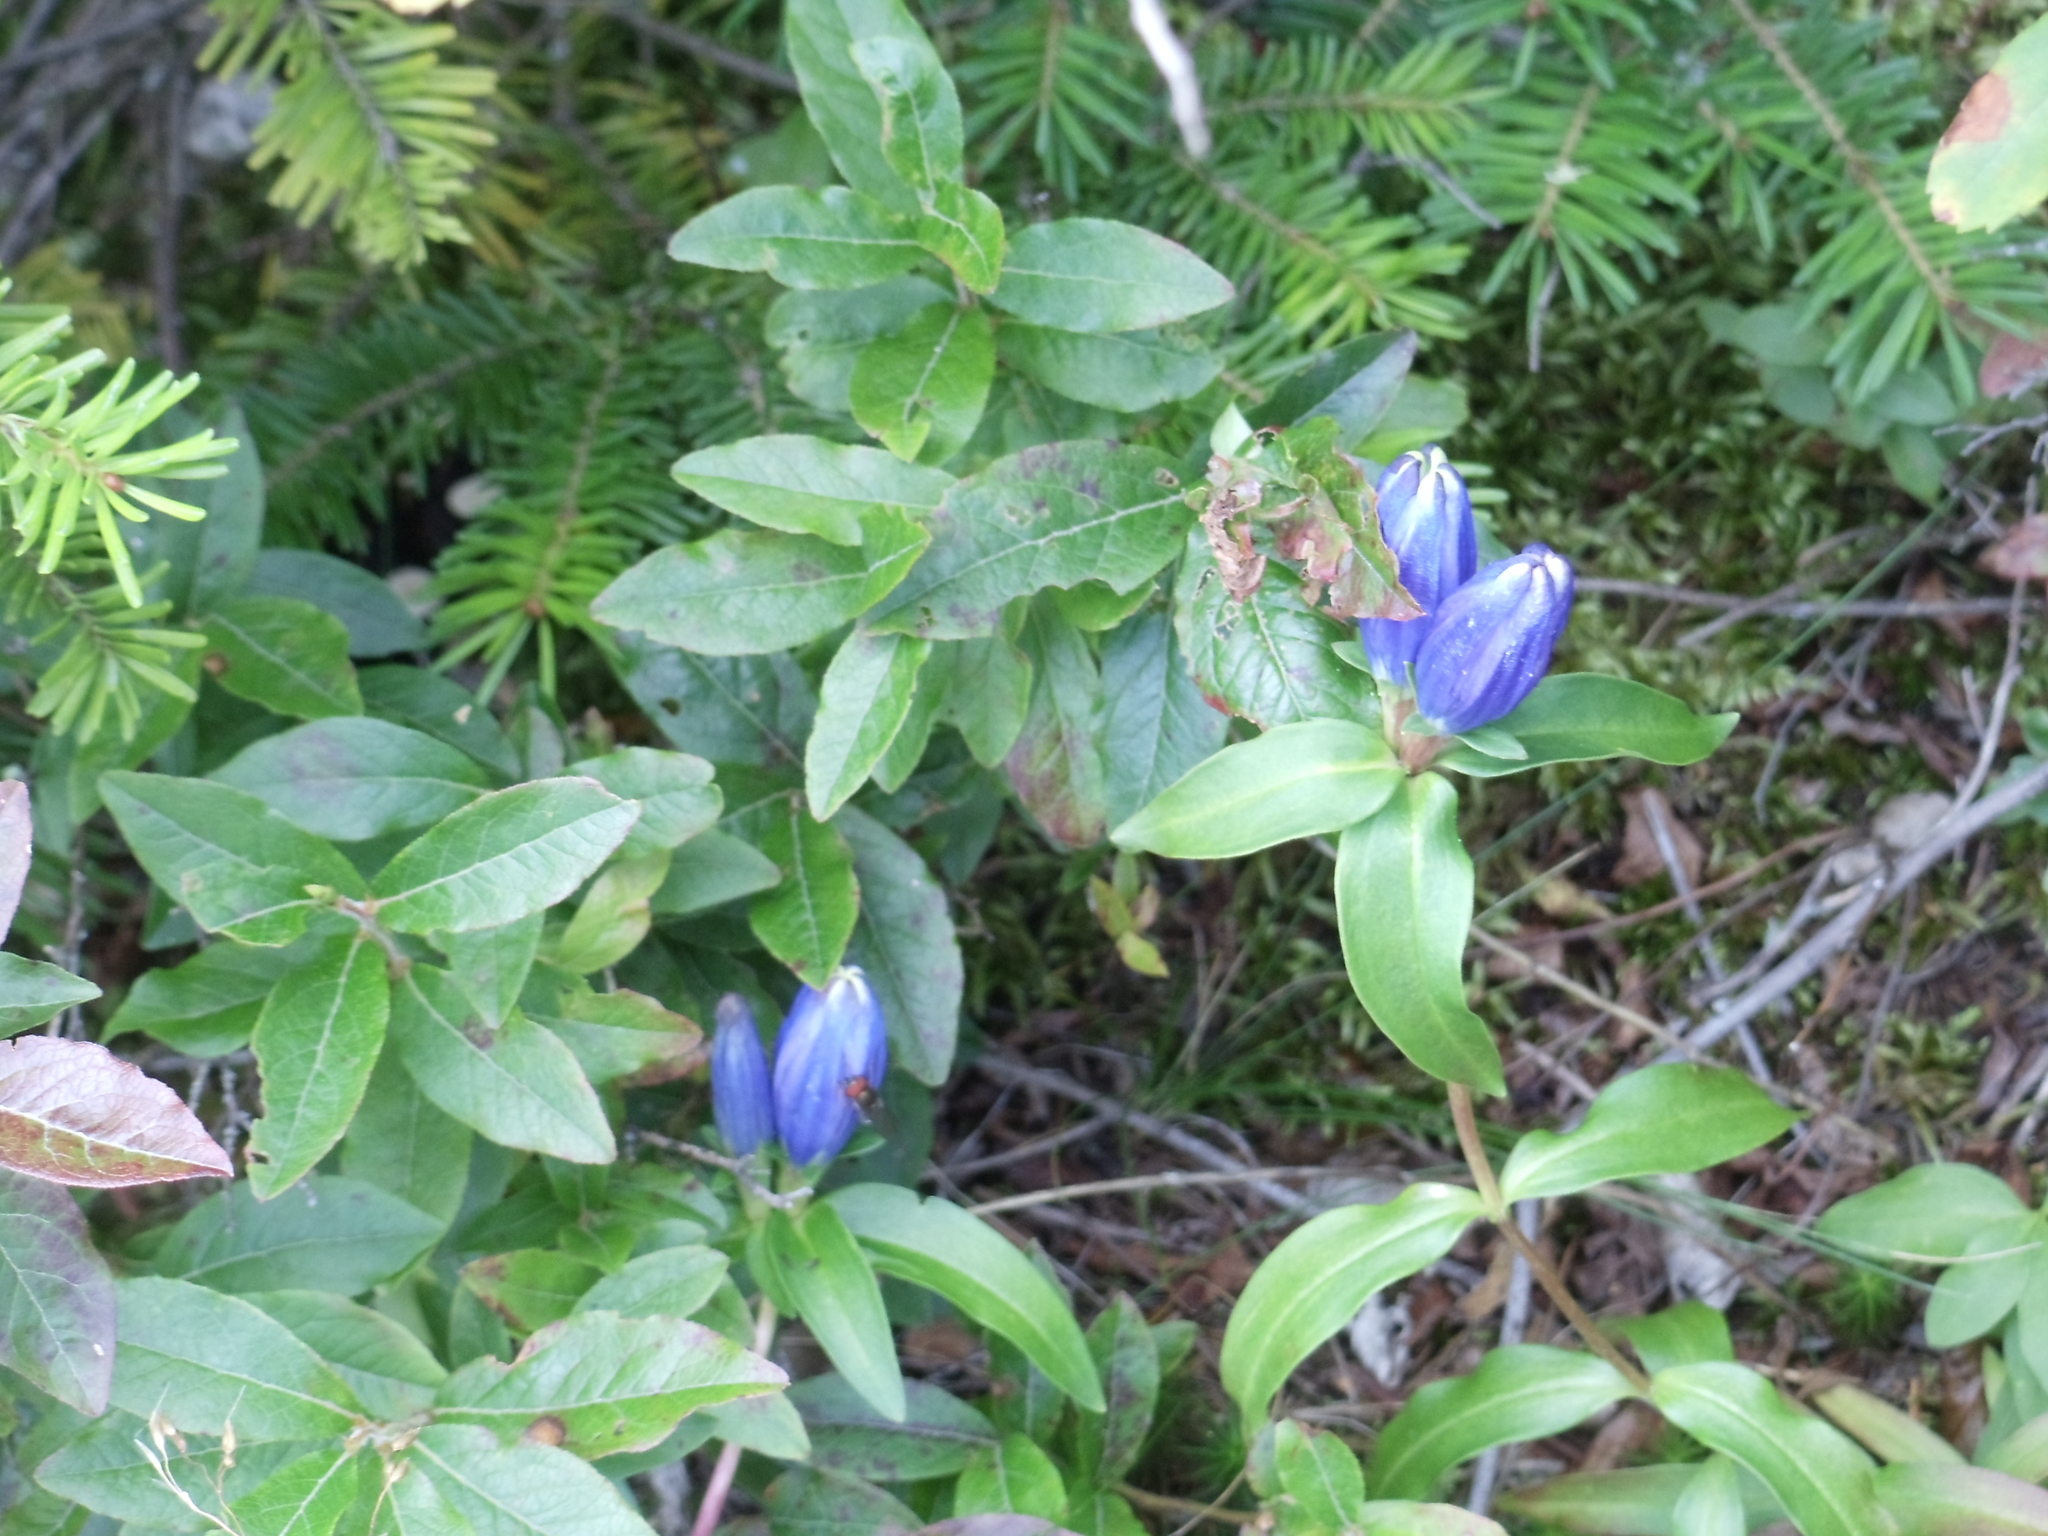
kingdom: Plantae
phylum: Tracheophyta
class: Magnoliopsida
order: Gentianales
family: Gentianaceae
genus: Gentiana
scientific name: Gentiana linearis
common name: Bastard gentian
